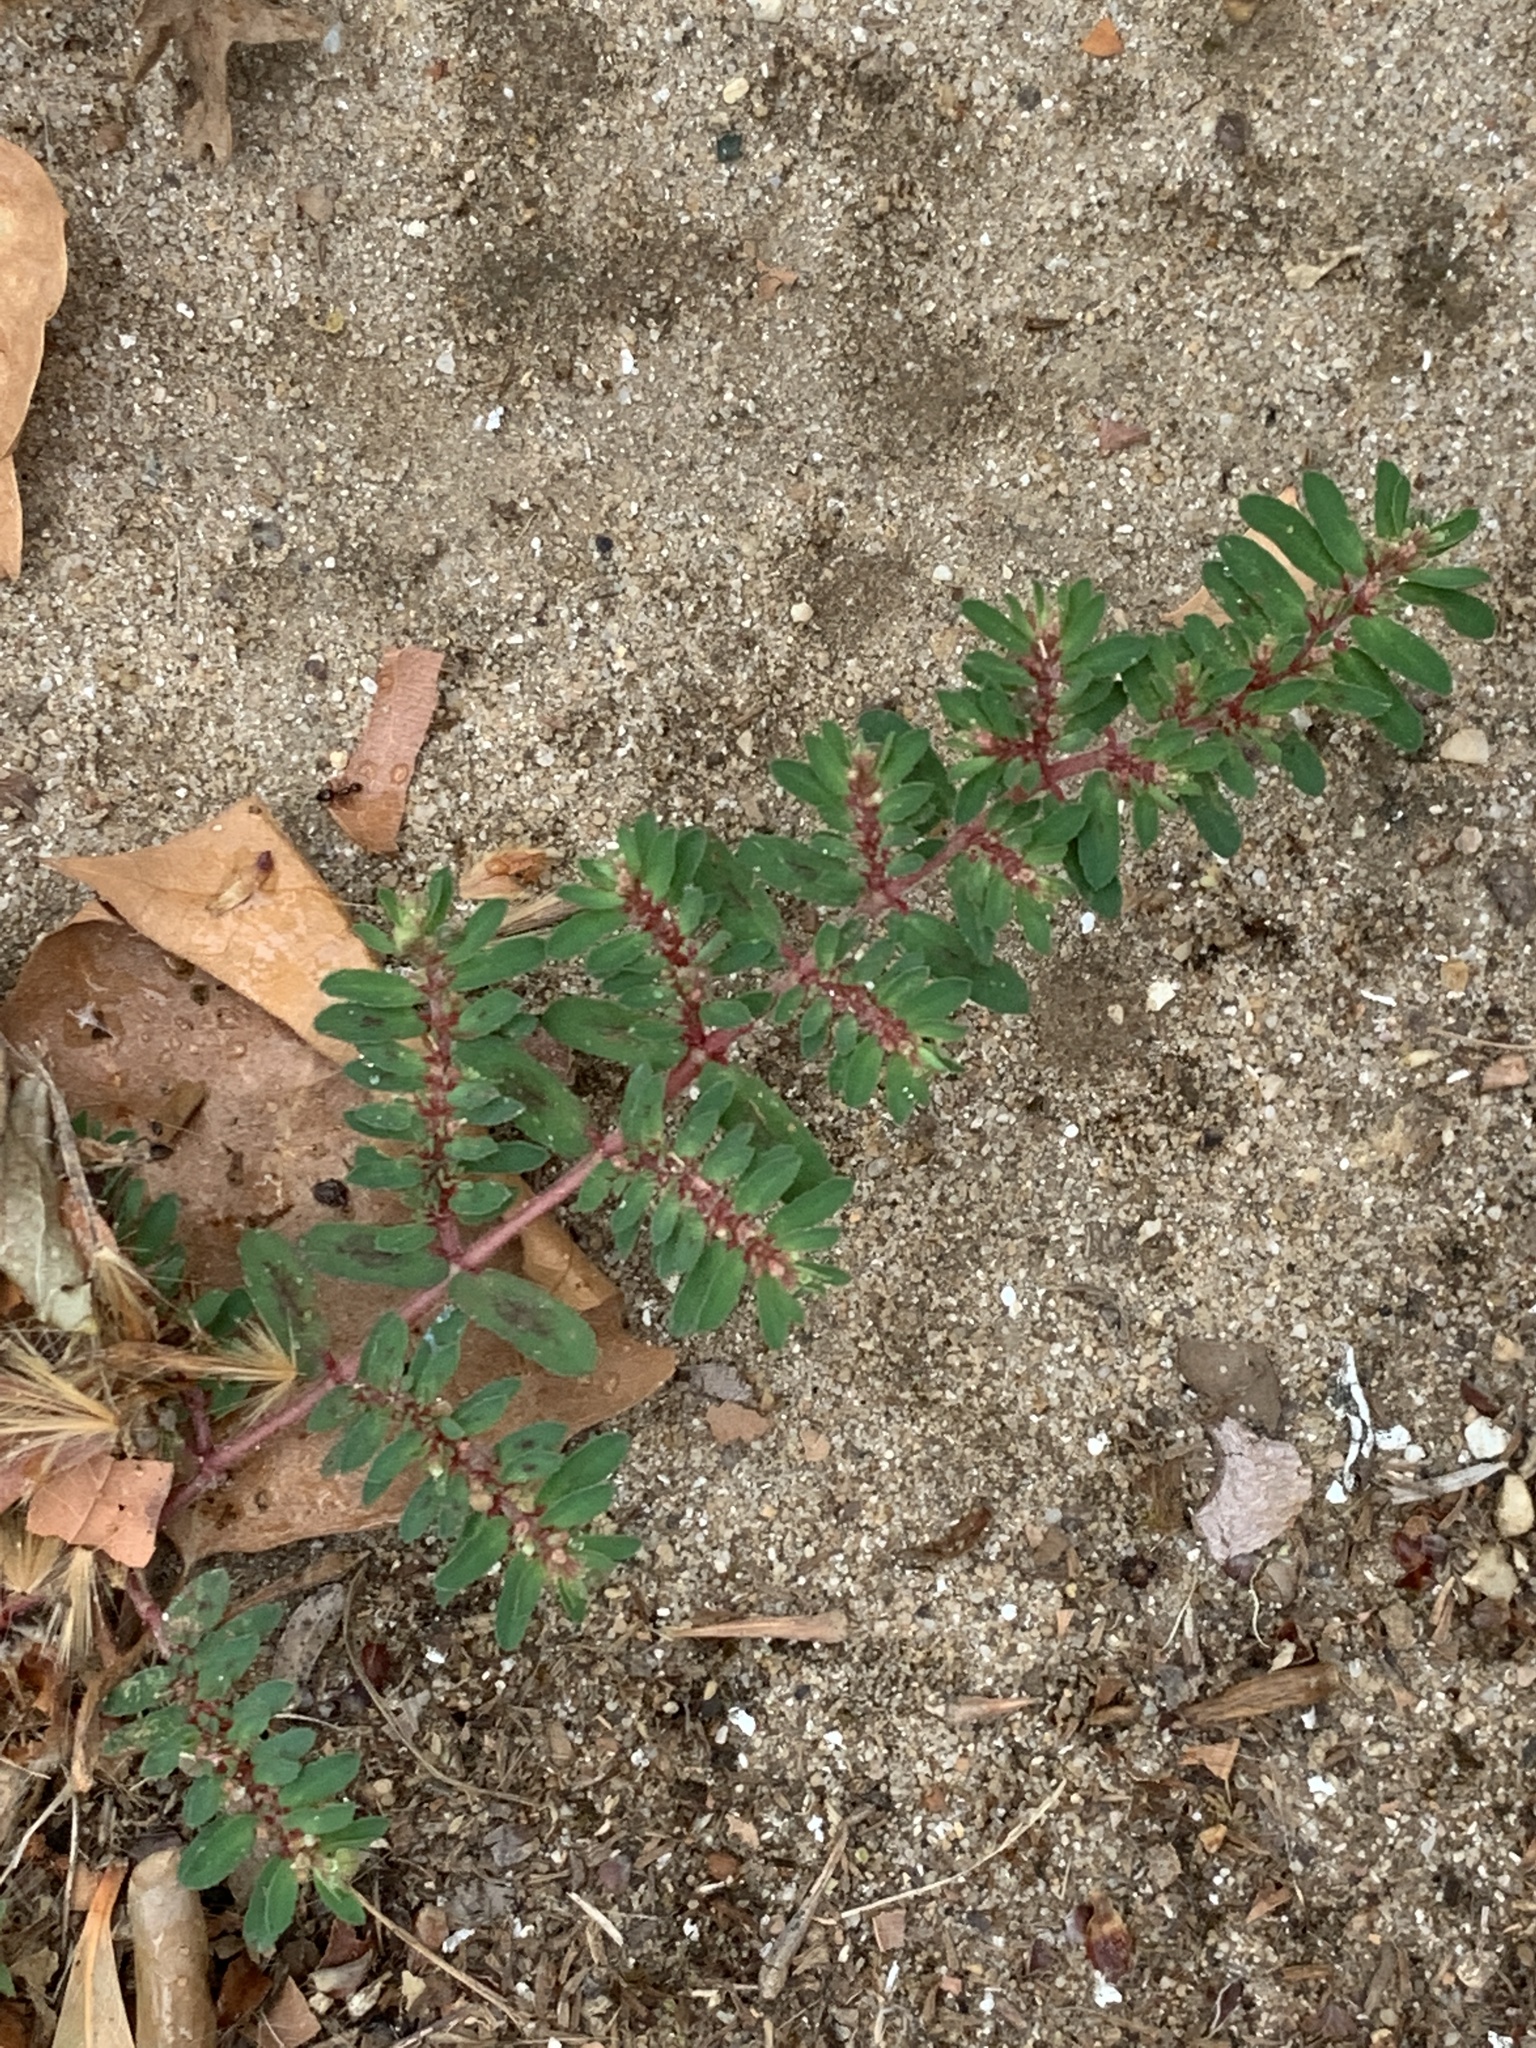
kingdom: Plantae
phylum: Tracheophyta
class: Magnoliopsida
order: Malpighiales
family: Euphorbiaceae
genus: Euphorbia
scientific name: Euphorbia maculata
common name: Spotted spurge
